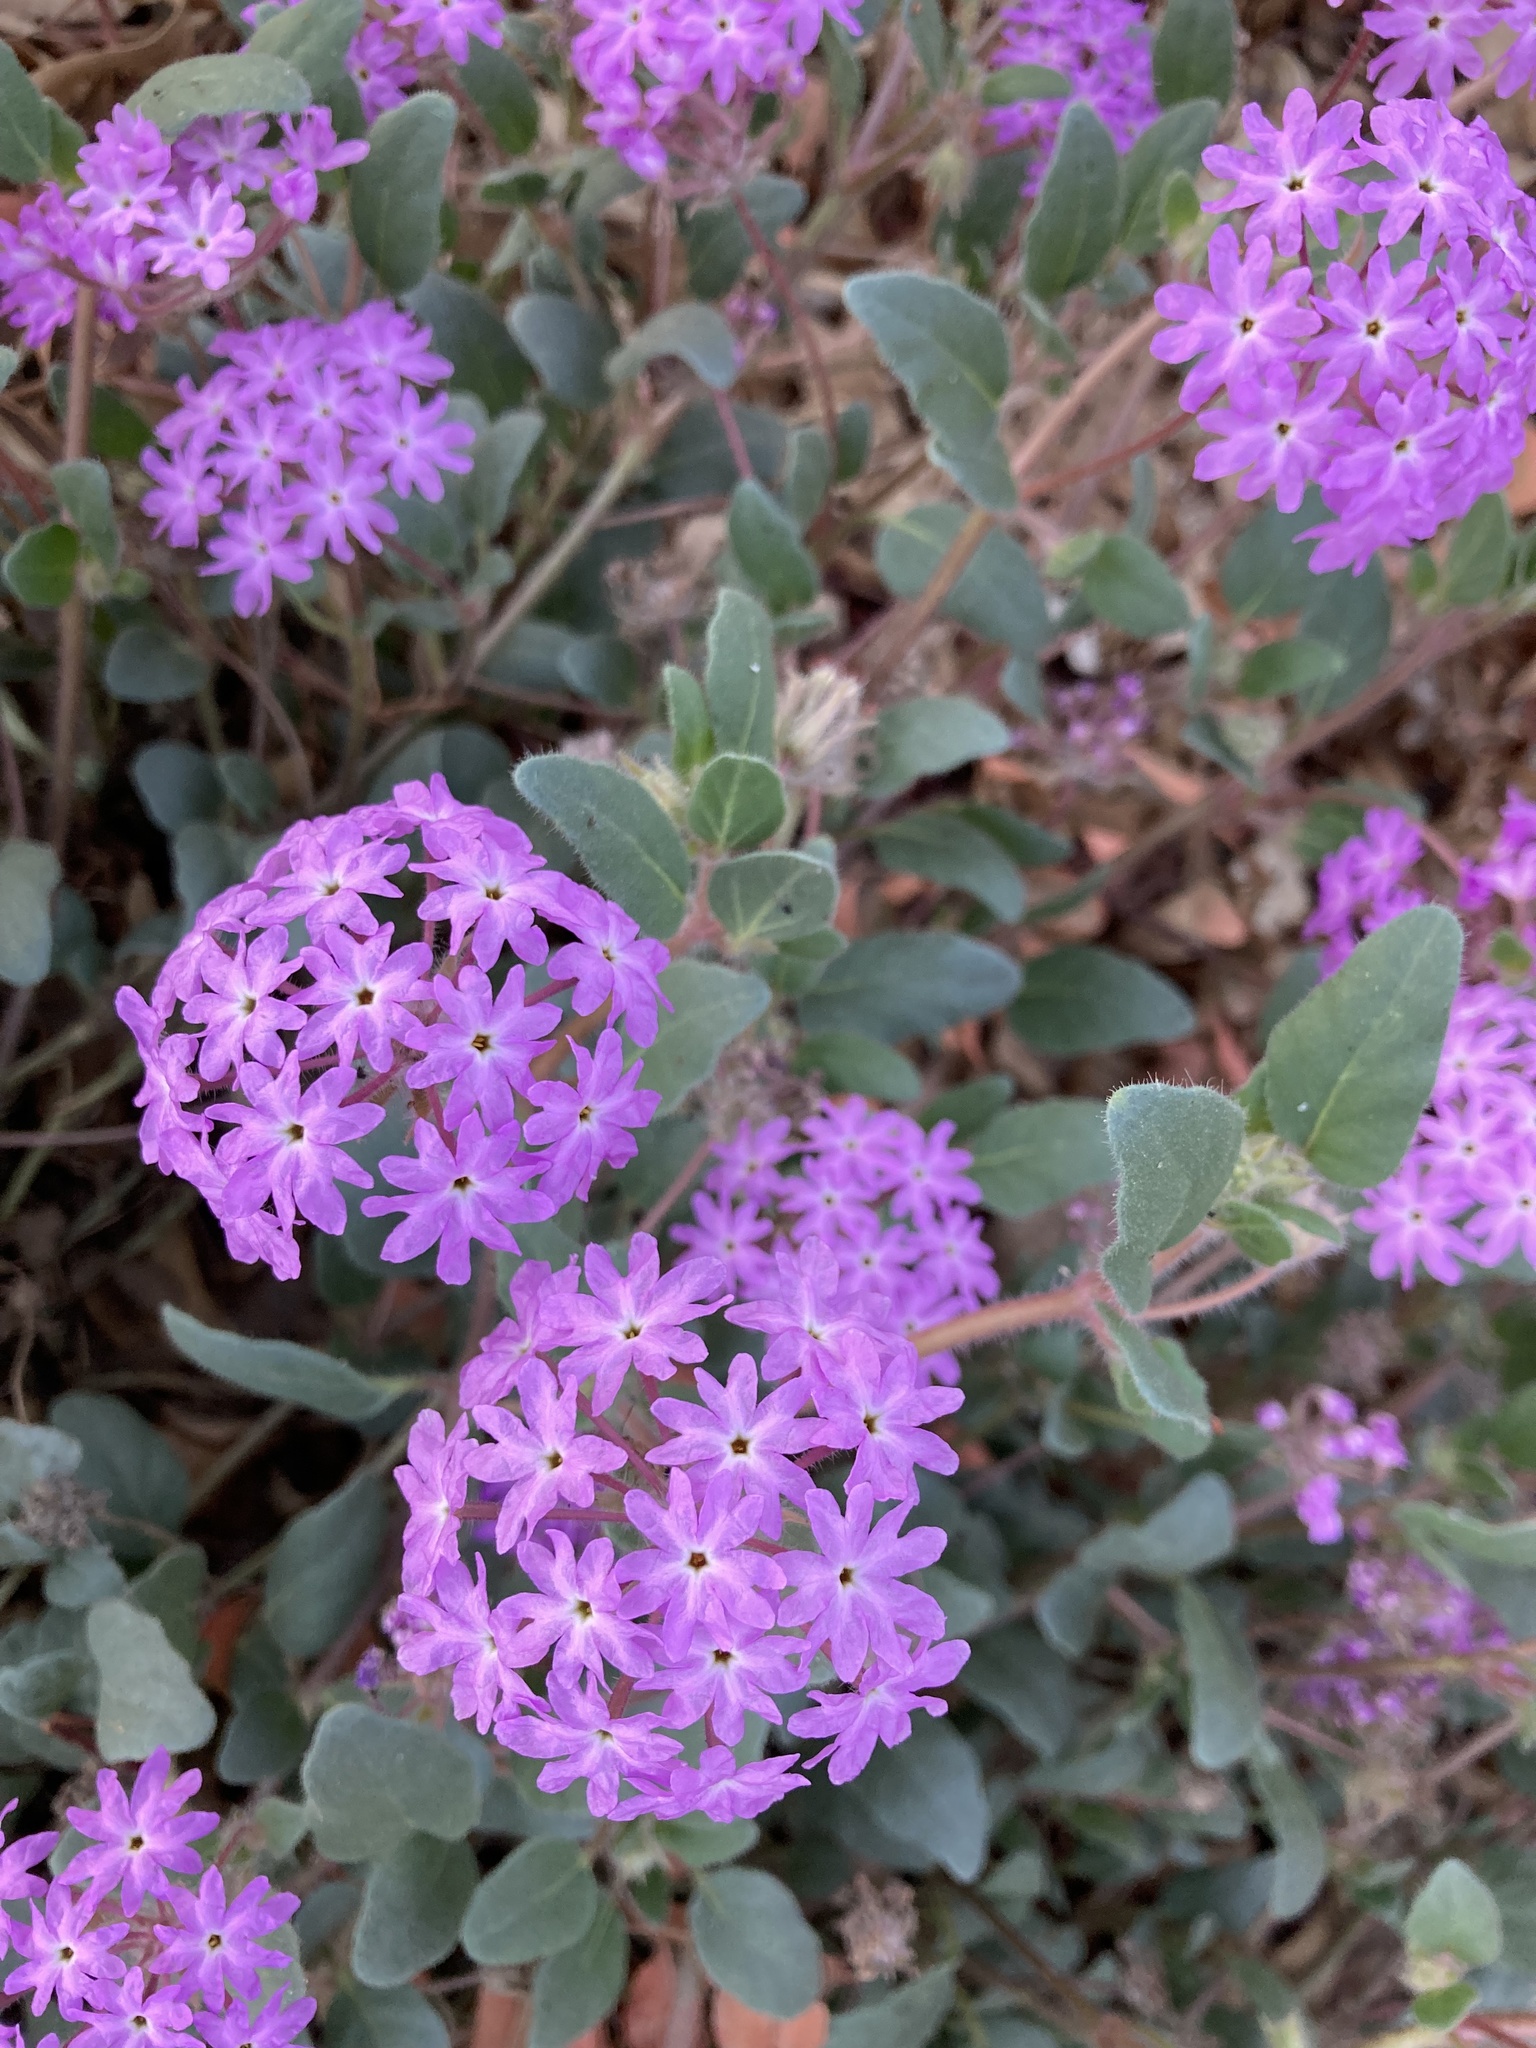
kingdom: Plantae
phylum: Tracheophyta
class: Magnoliopsida
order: Caryophyllales
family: Nyctaginaceae
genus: Abronia
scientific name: Abronia villosa
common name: Desert sand-verbena
